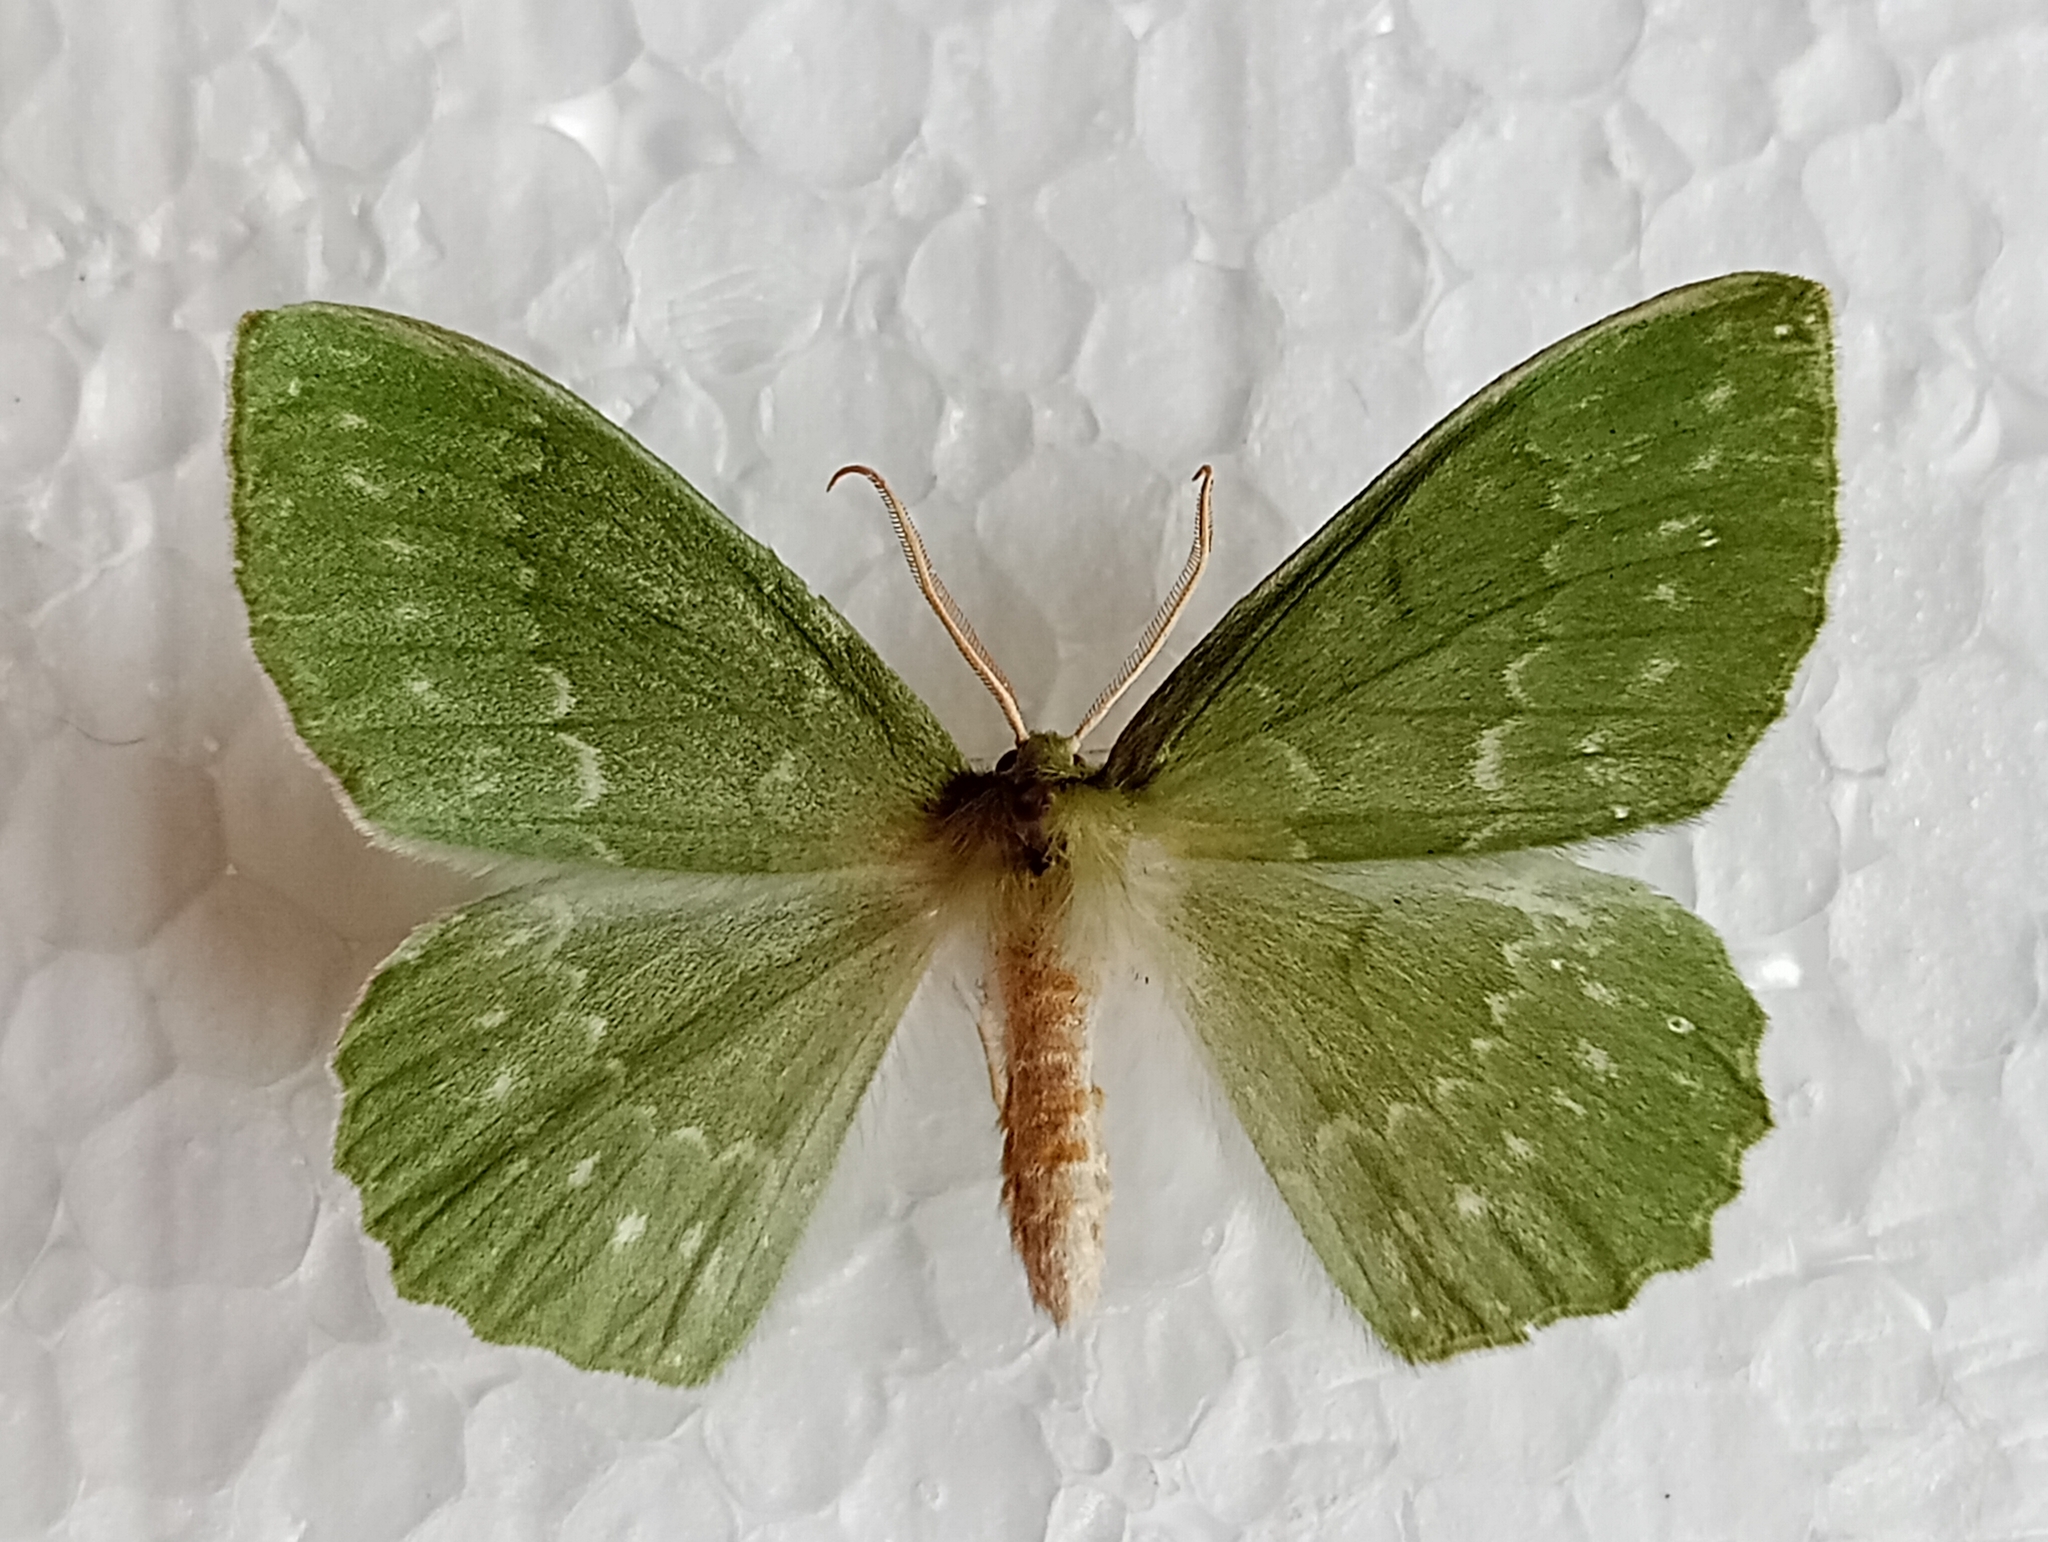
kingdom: Animalia
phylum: Arthropoda
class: Insecta
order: Lepidoptera
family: Geometridae
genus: Geometra
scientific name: Geometra papilionaria
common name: Large emerald
